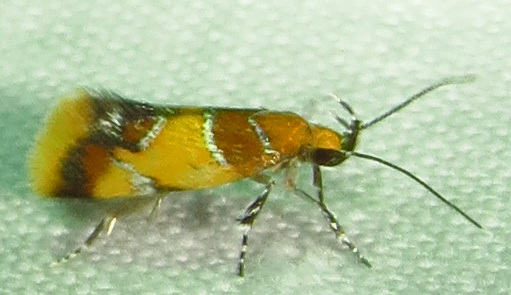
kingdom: Animalia
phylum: Arthropoda
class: Insecta
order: Lepidoptera
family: Oecophoridae
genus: Callima
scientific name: Callima argenticinctella
